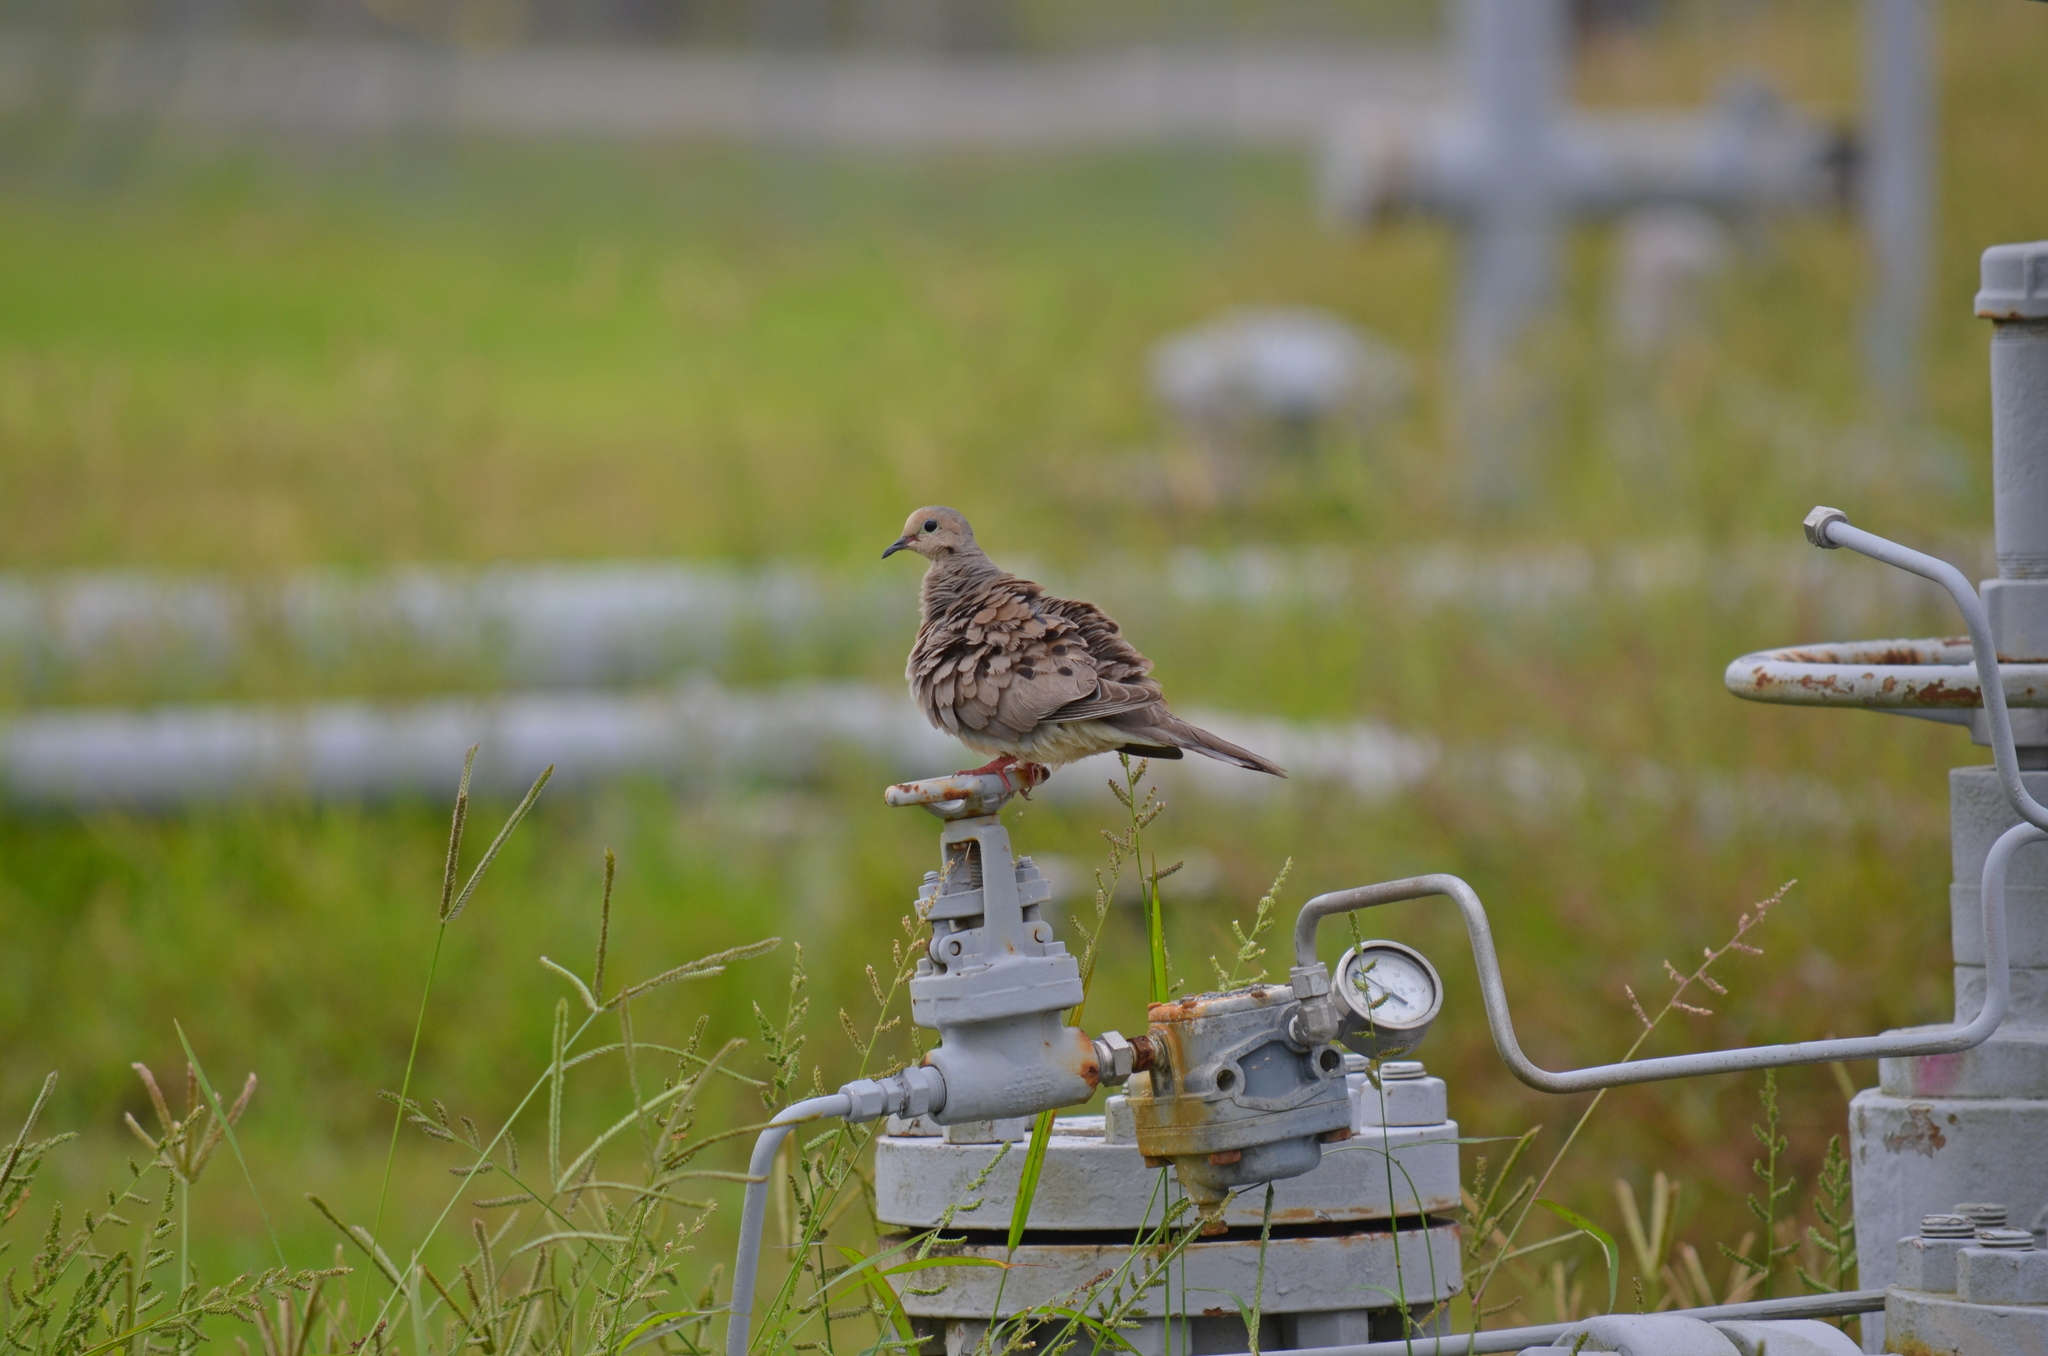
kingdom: Animalia
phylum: Chordata
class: Aves
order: Columbiformes
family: Columbidae
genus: Zenaida
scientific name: Zenaida macroura
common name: Mourning dove
